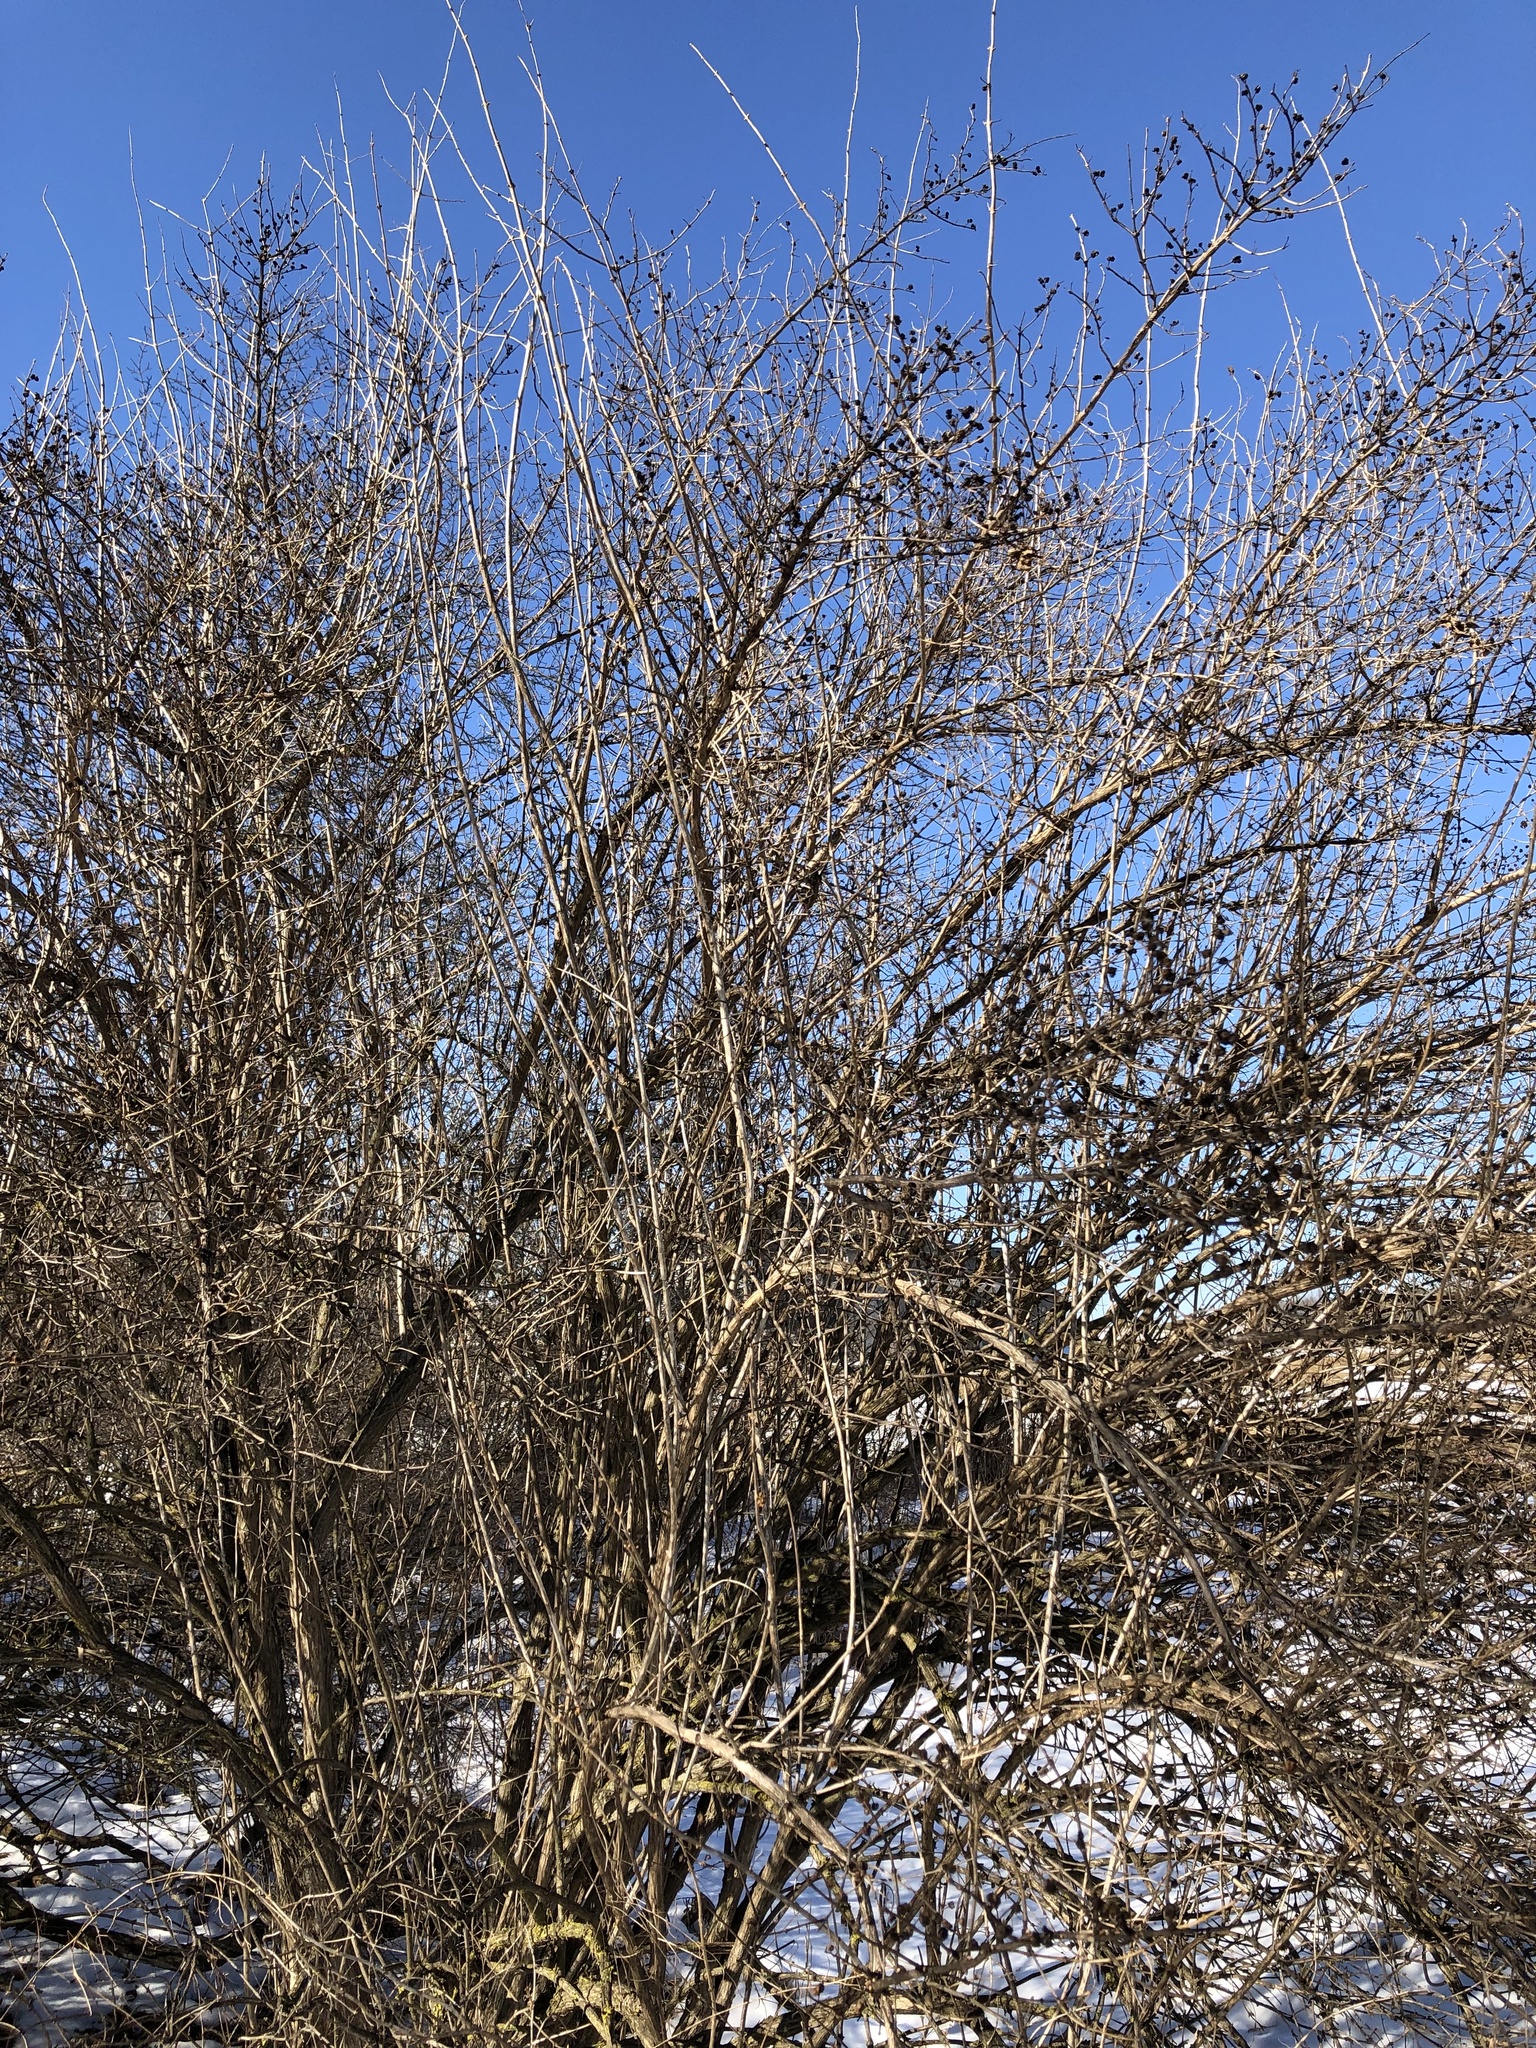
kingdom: Plantae
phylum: Tracheophyta
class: Magnoliopsida
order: Rosales
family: Rhamnaceae
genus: Rhamnus
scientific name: Rhamnus cathartica
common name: Common buckthorn
